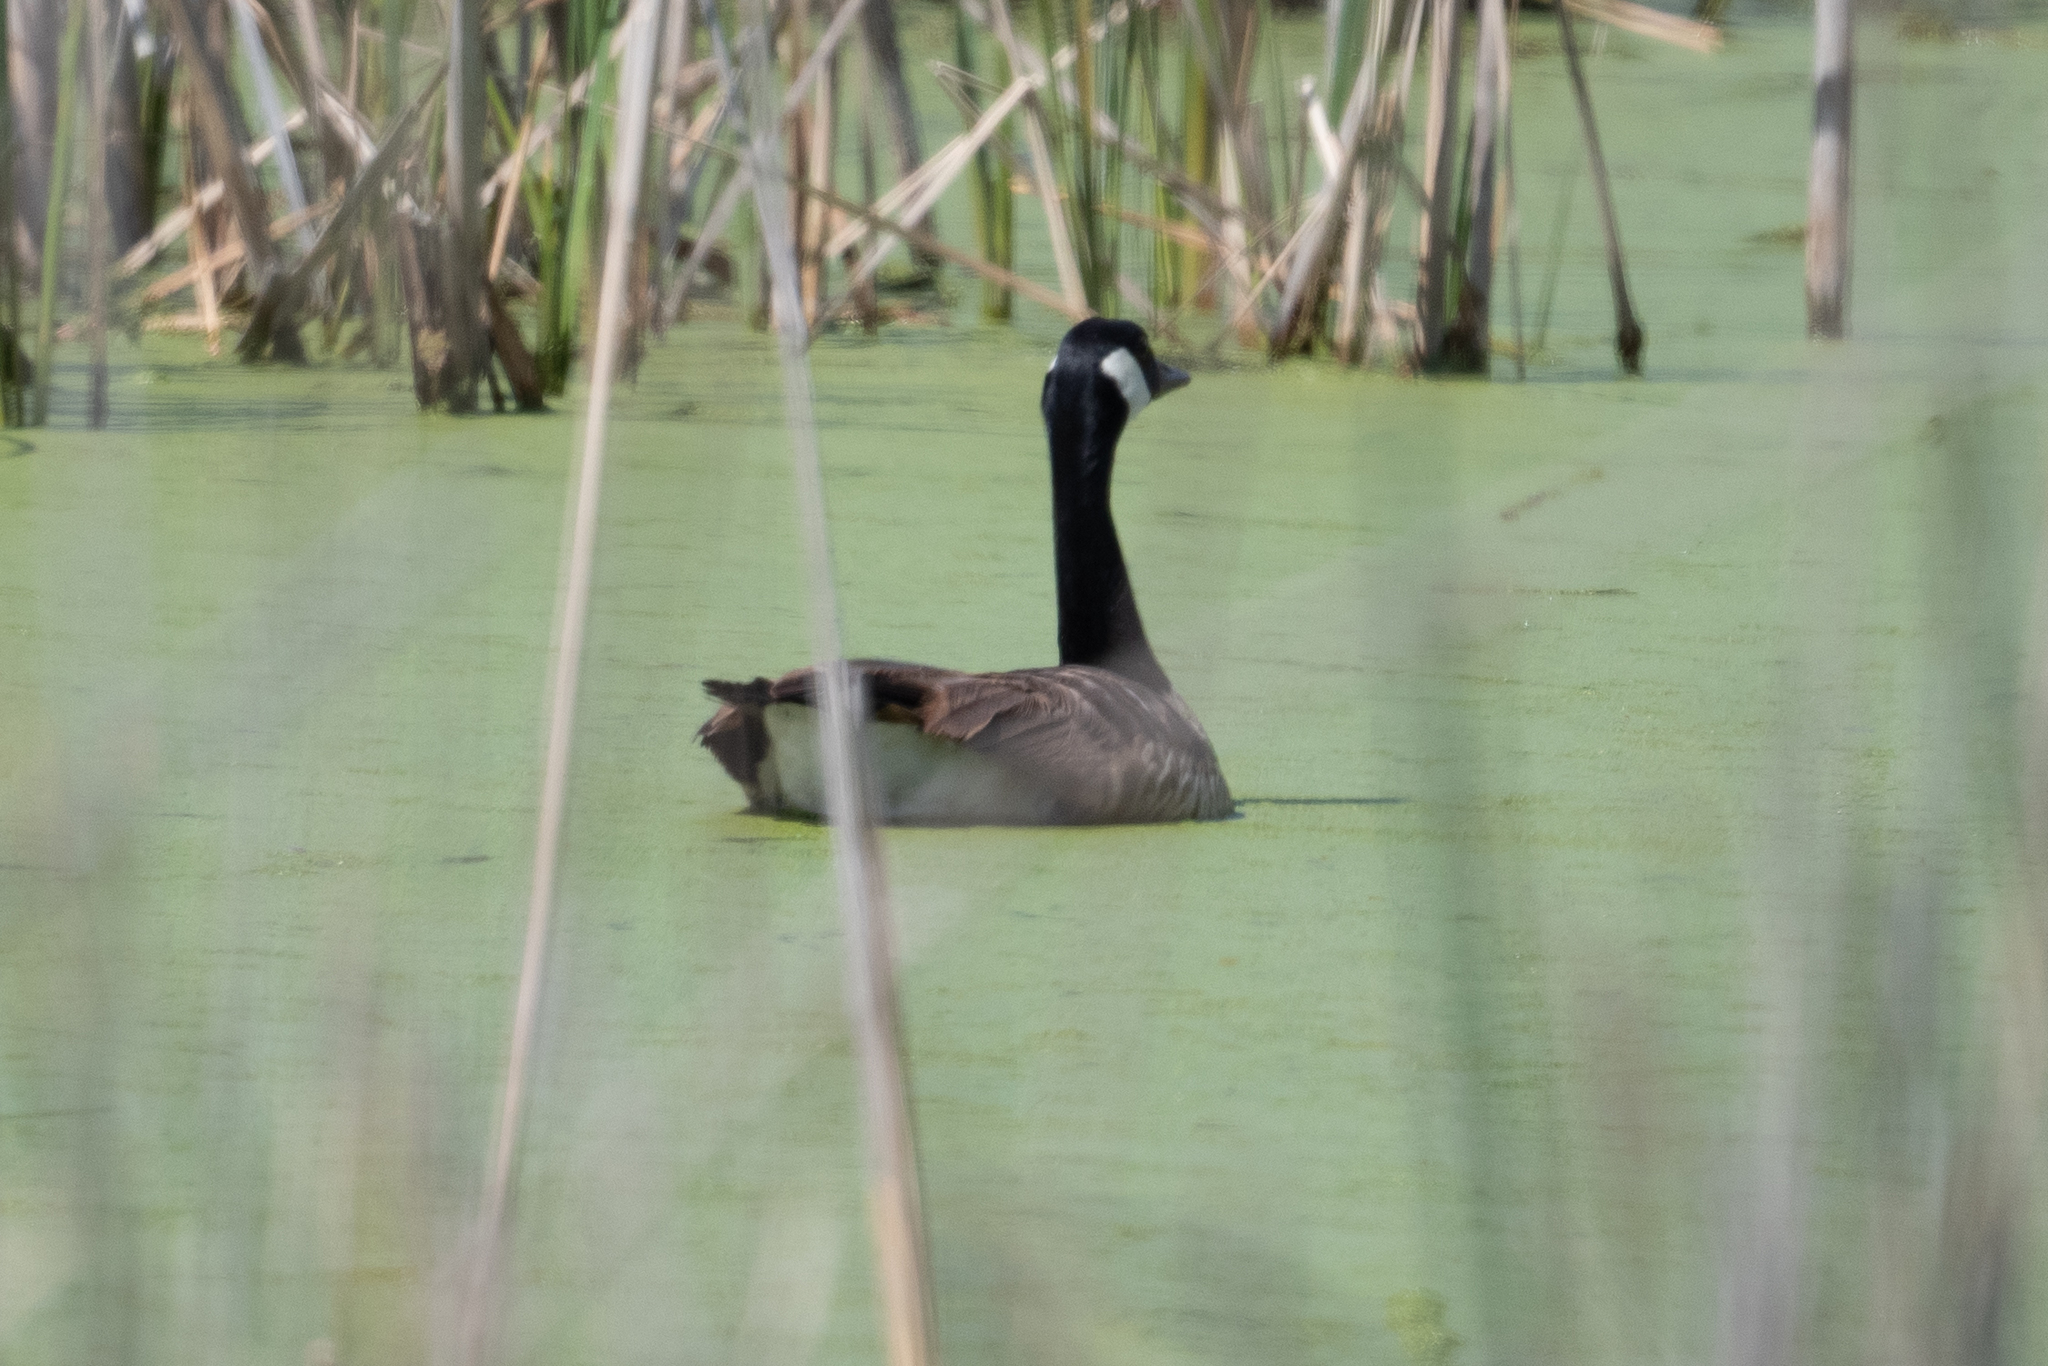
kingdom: Animalia
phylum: Chordata
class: Aves
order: Anseriformes
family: Anatidae
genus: Branta
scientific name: Branta canadensis
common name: Canada goose
